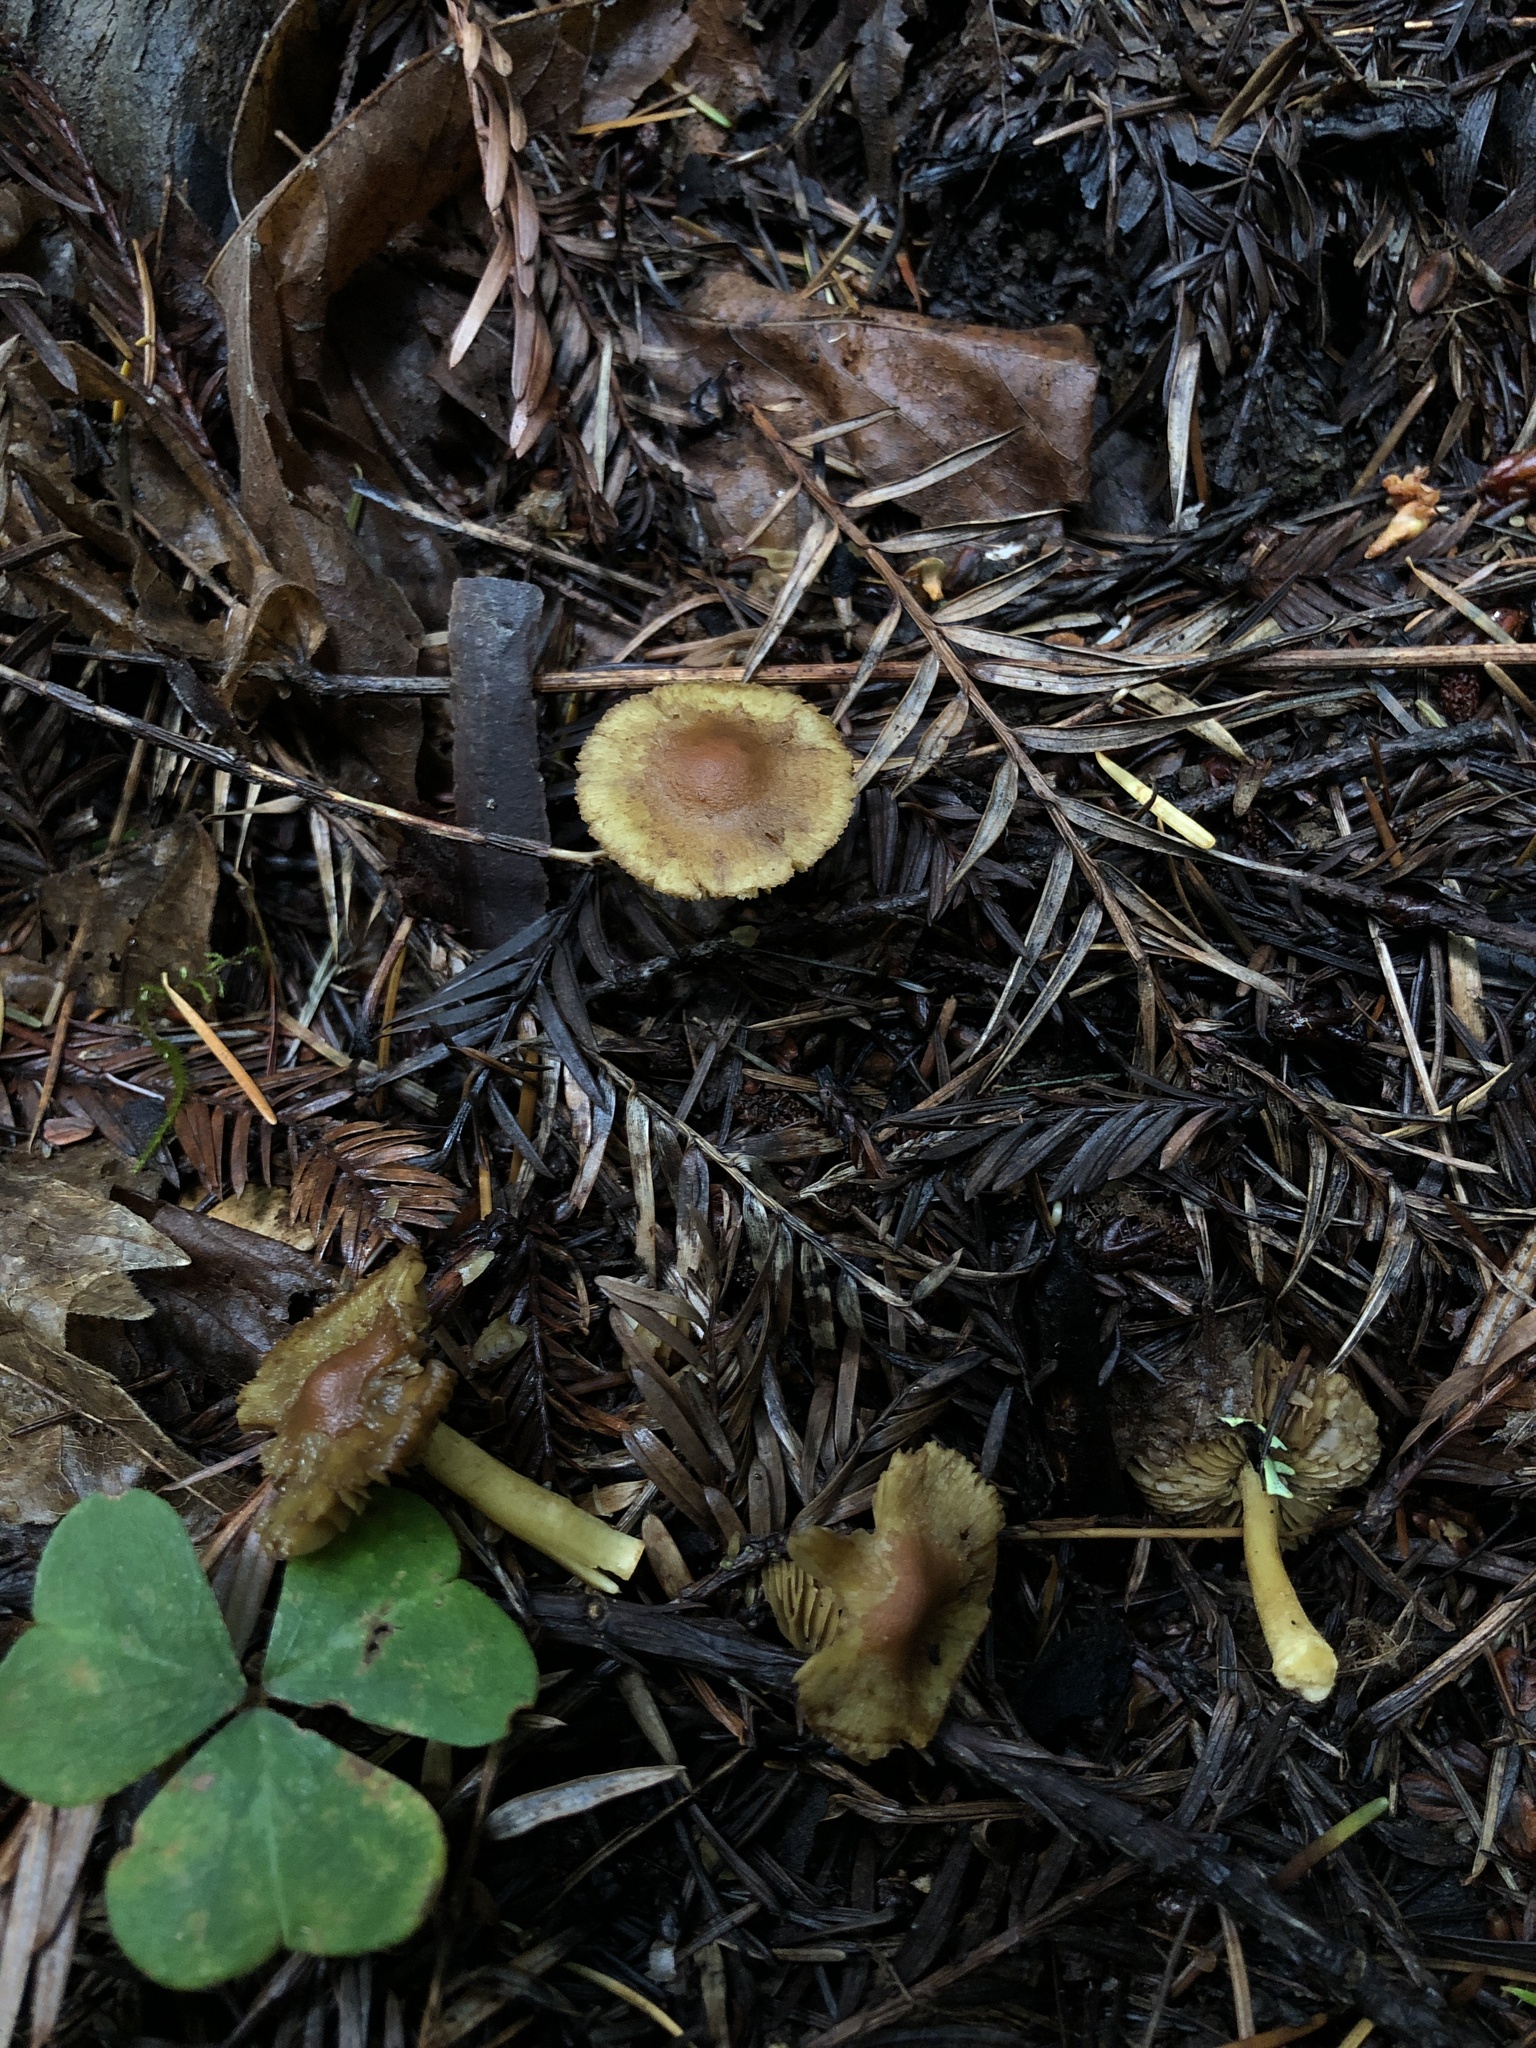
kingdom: Fungi
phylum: Basidiomycota
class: Agaricomycetes
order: Agaricales
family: Inocybaceae
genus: Inocybe
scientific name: Inocybe mycenoides
